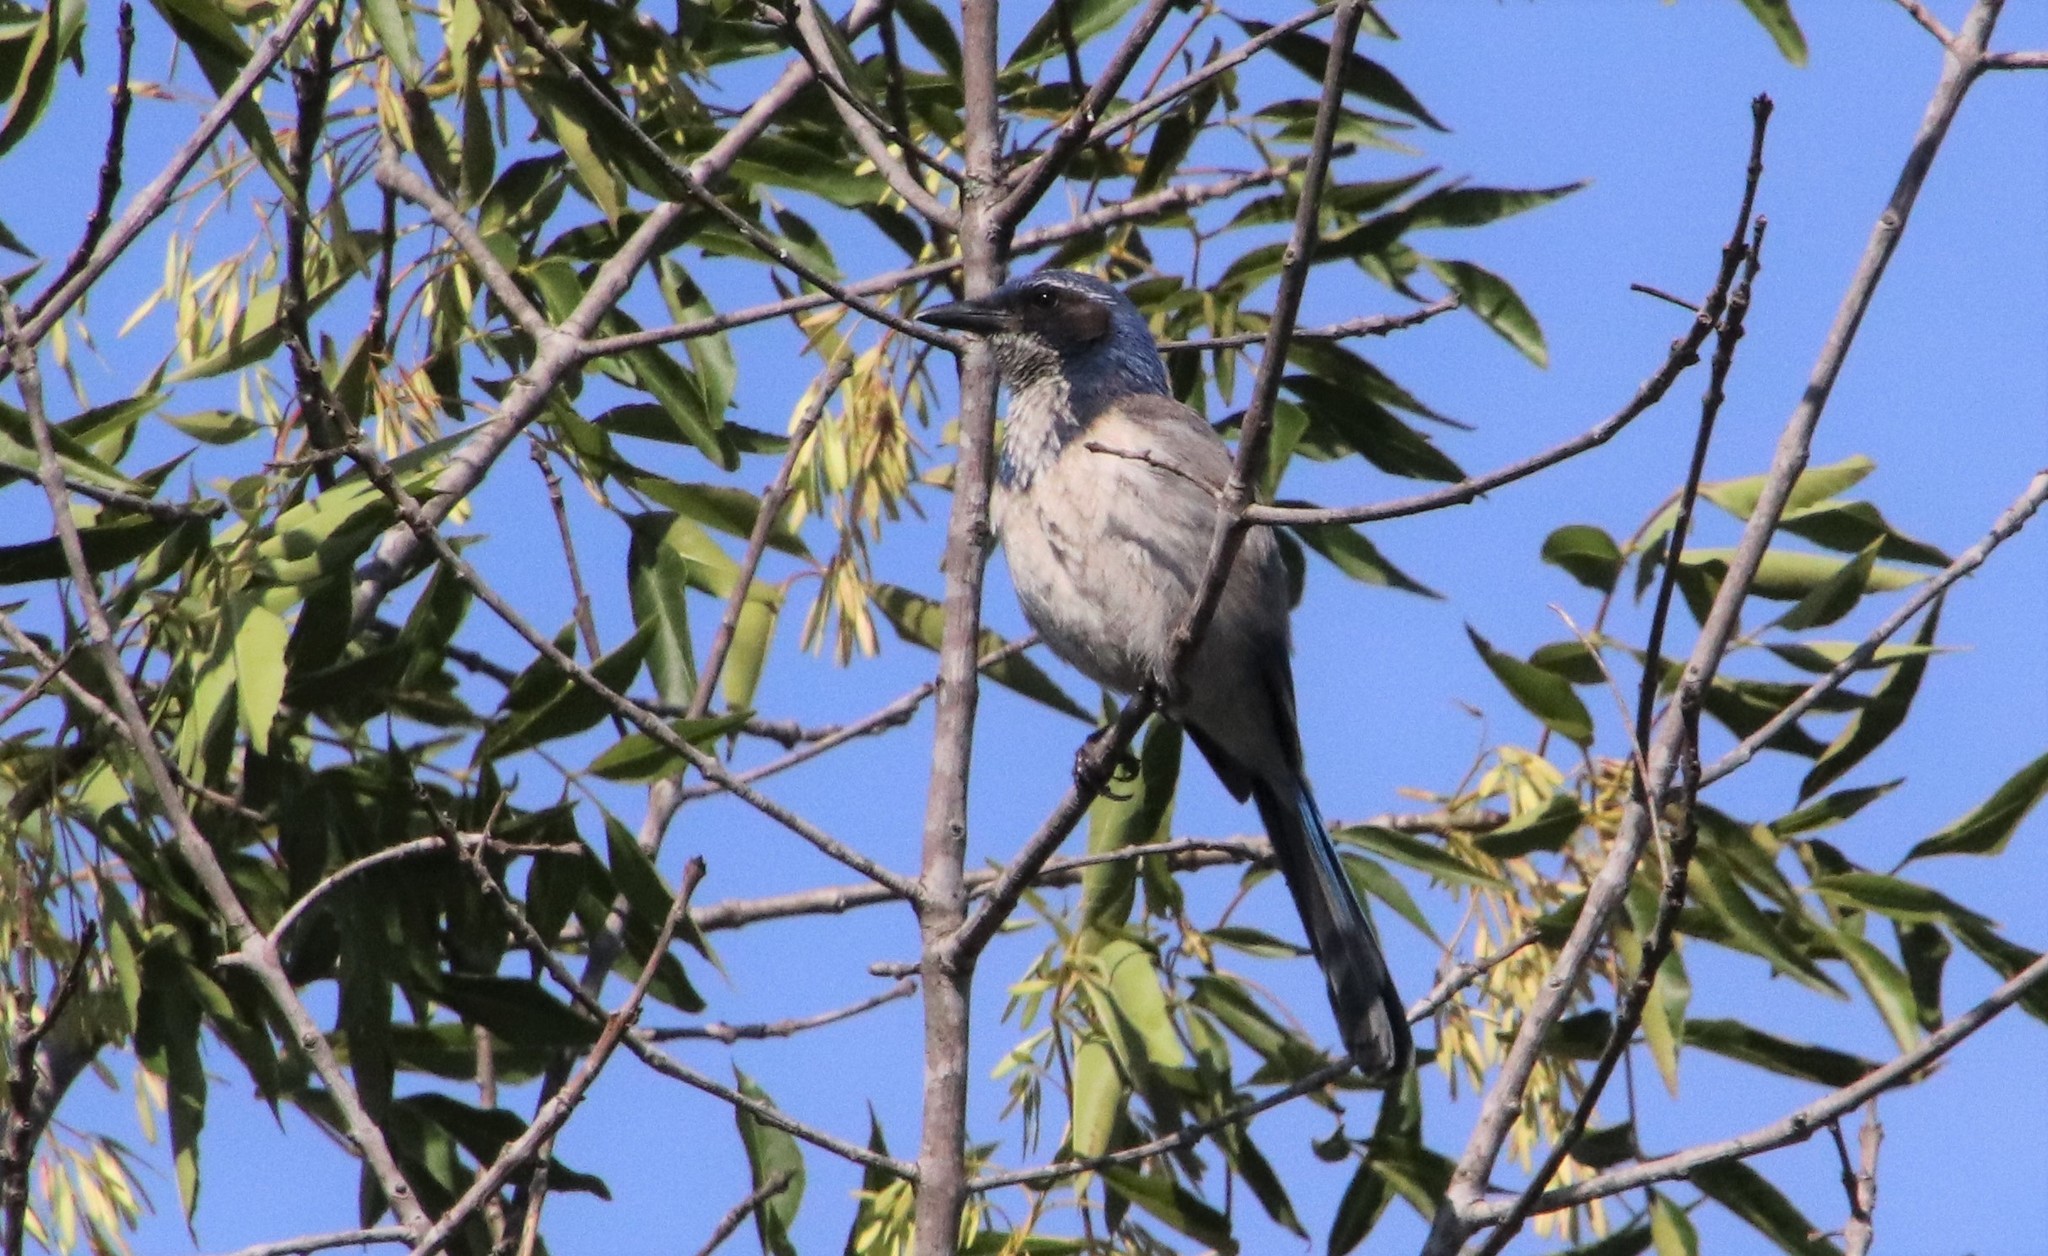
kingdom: Animalia
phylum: Chordata
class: Aves
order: Passeriformes
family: Corvidae
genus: Aphelocoma
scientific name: Aphelocoma californica
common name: California scrub-jay
